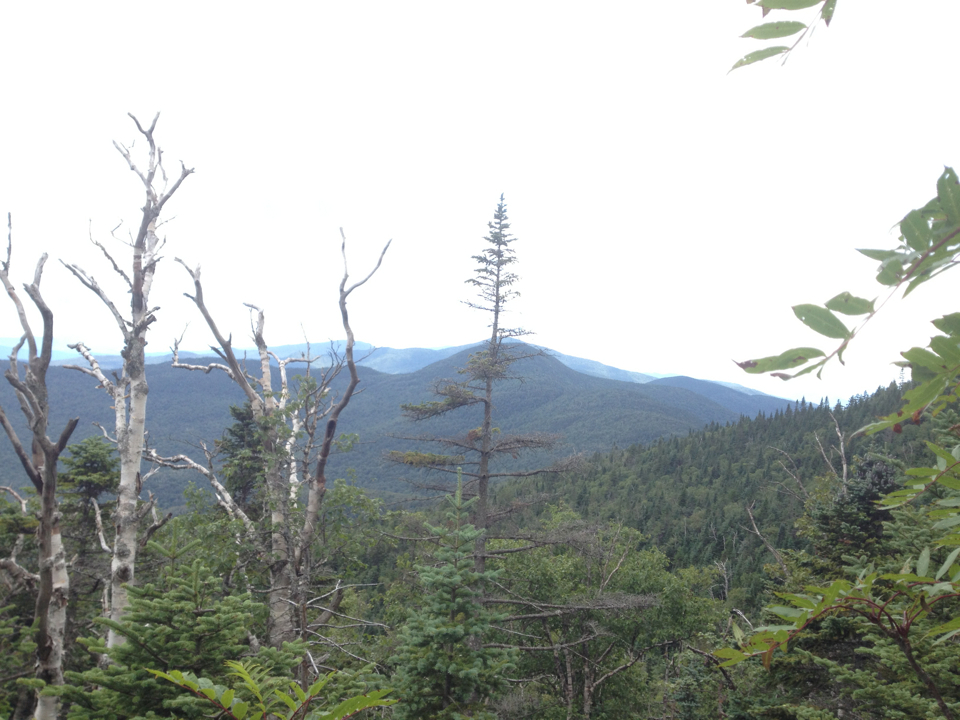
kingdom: Plantae
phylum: Tracheophyta
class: Magnoliopsida
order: Fagales
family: Betulaceae
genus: Betula
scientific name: Betula cordifolia
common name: Mountain white birch
